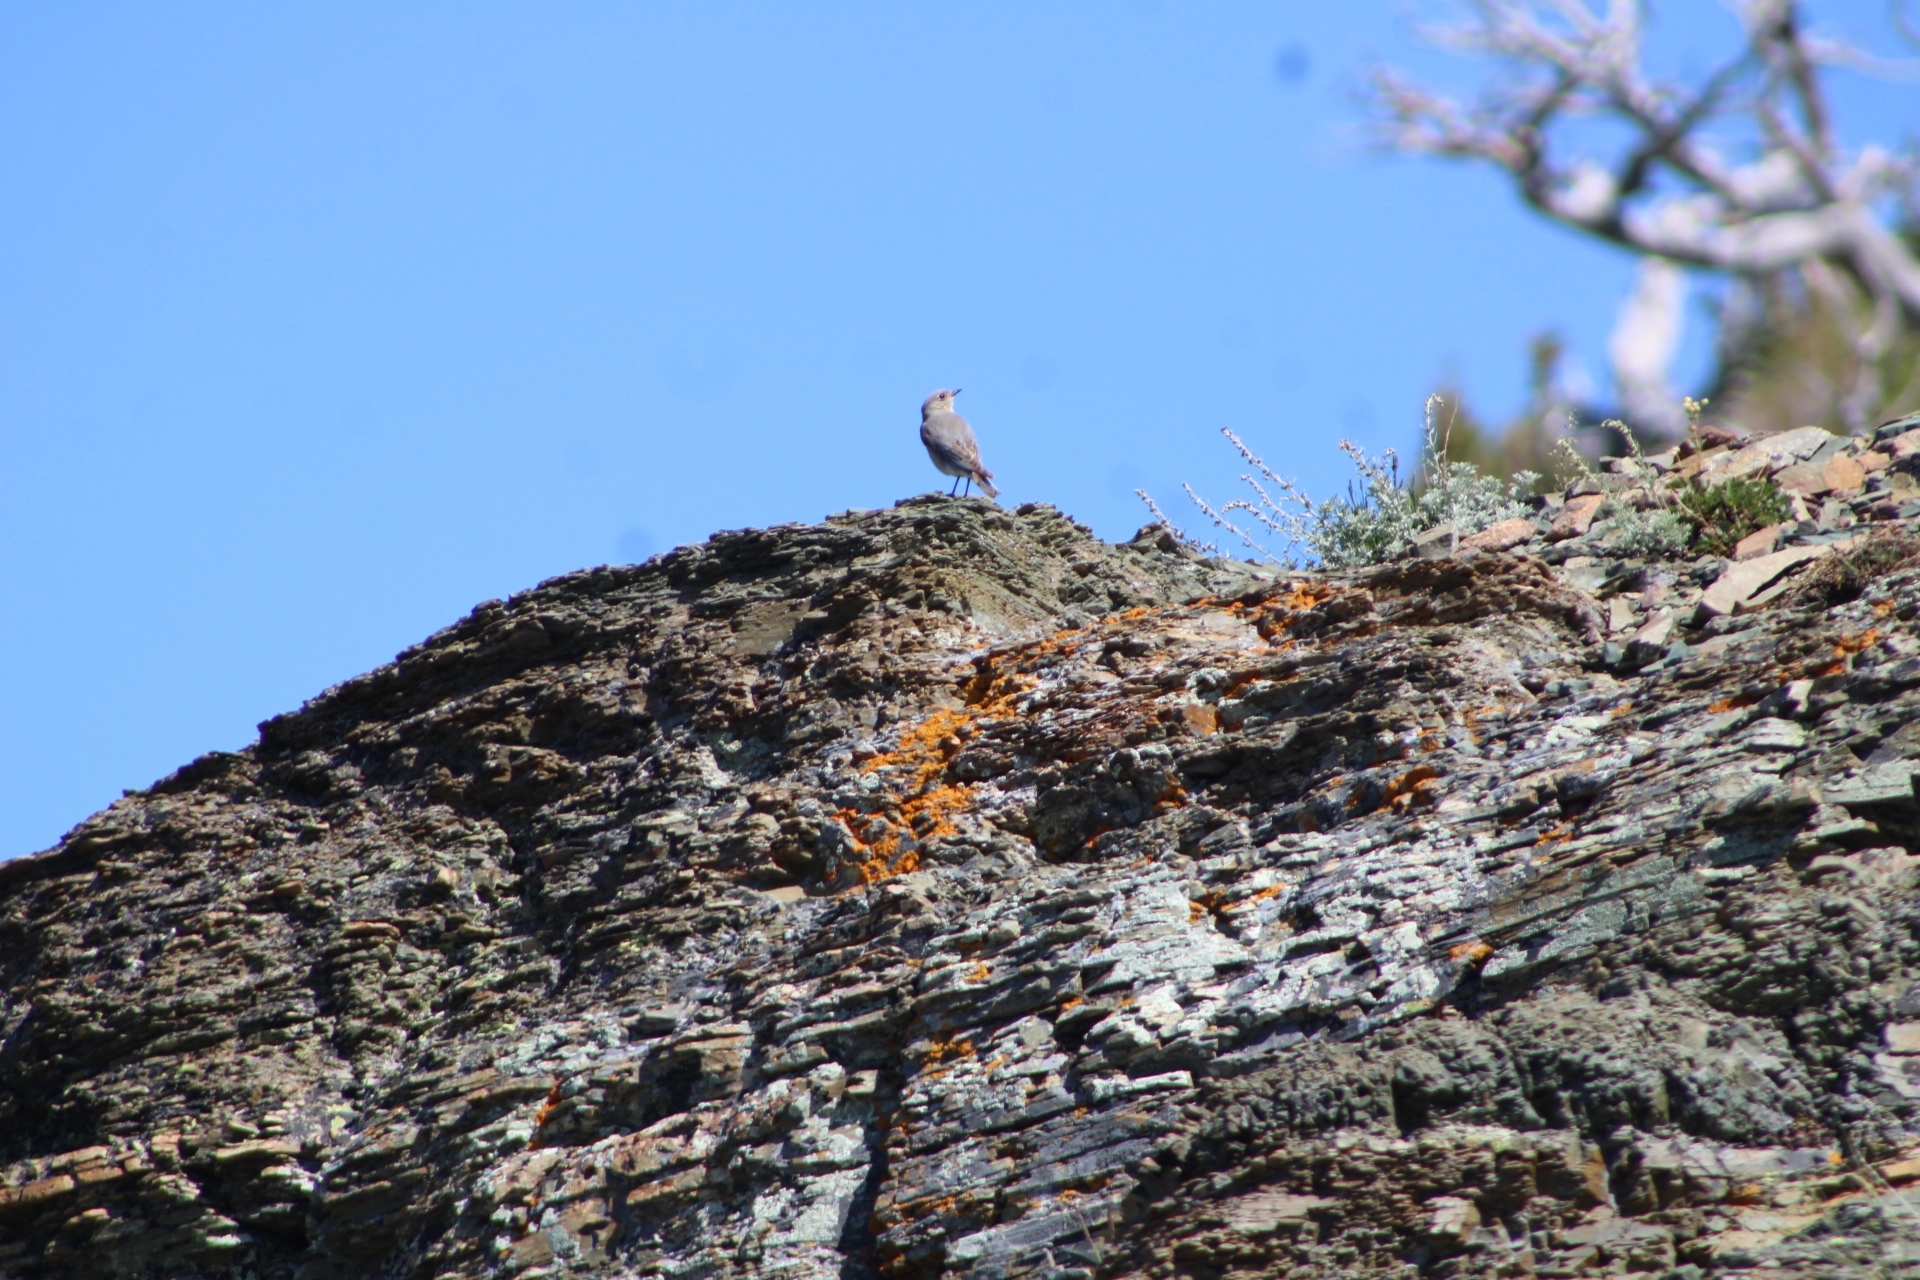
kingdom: Animalia
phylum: Chordata
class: Aves
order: Passeriformes
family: Turdidae
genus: Sialia
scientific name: Sialia currucoides
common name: Mountain bluebird
